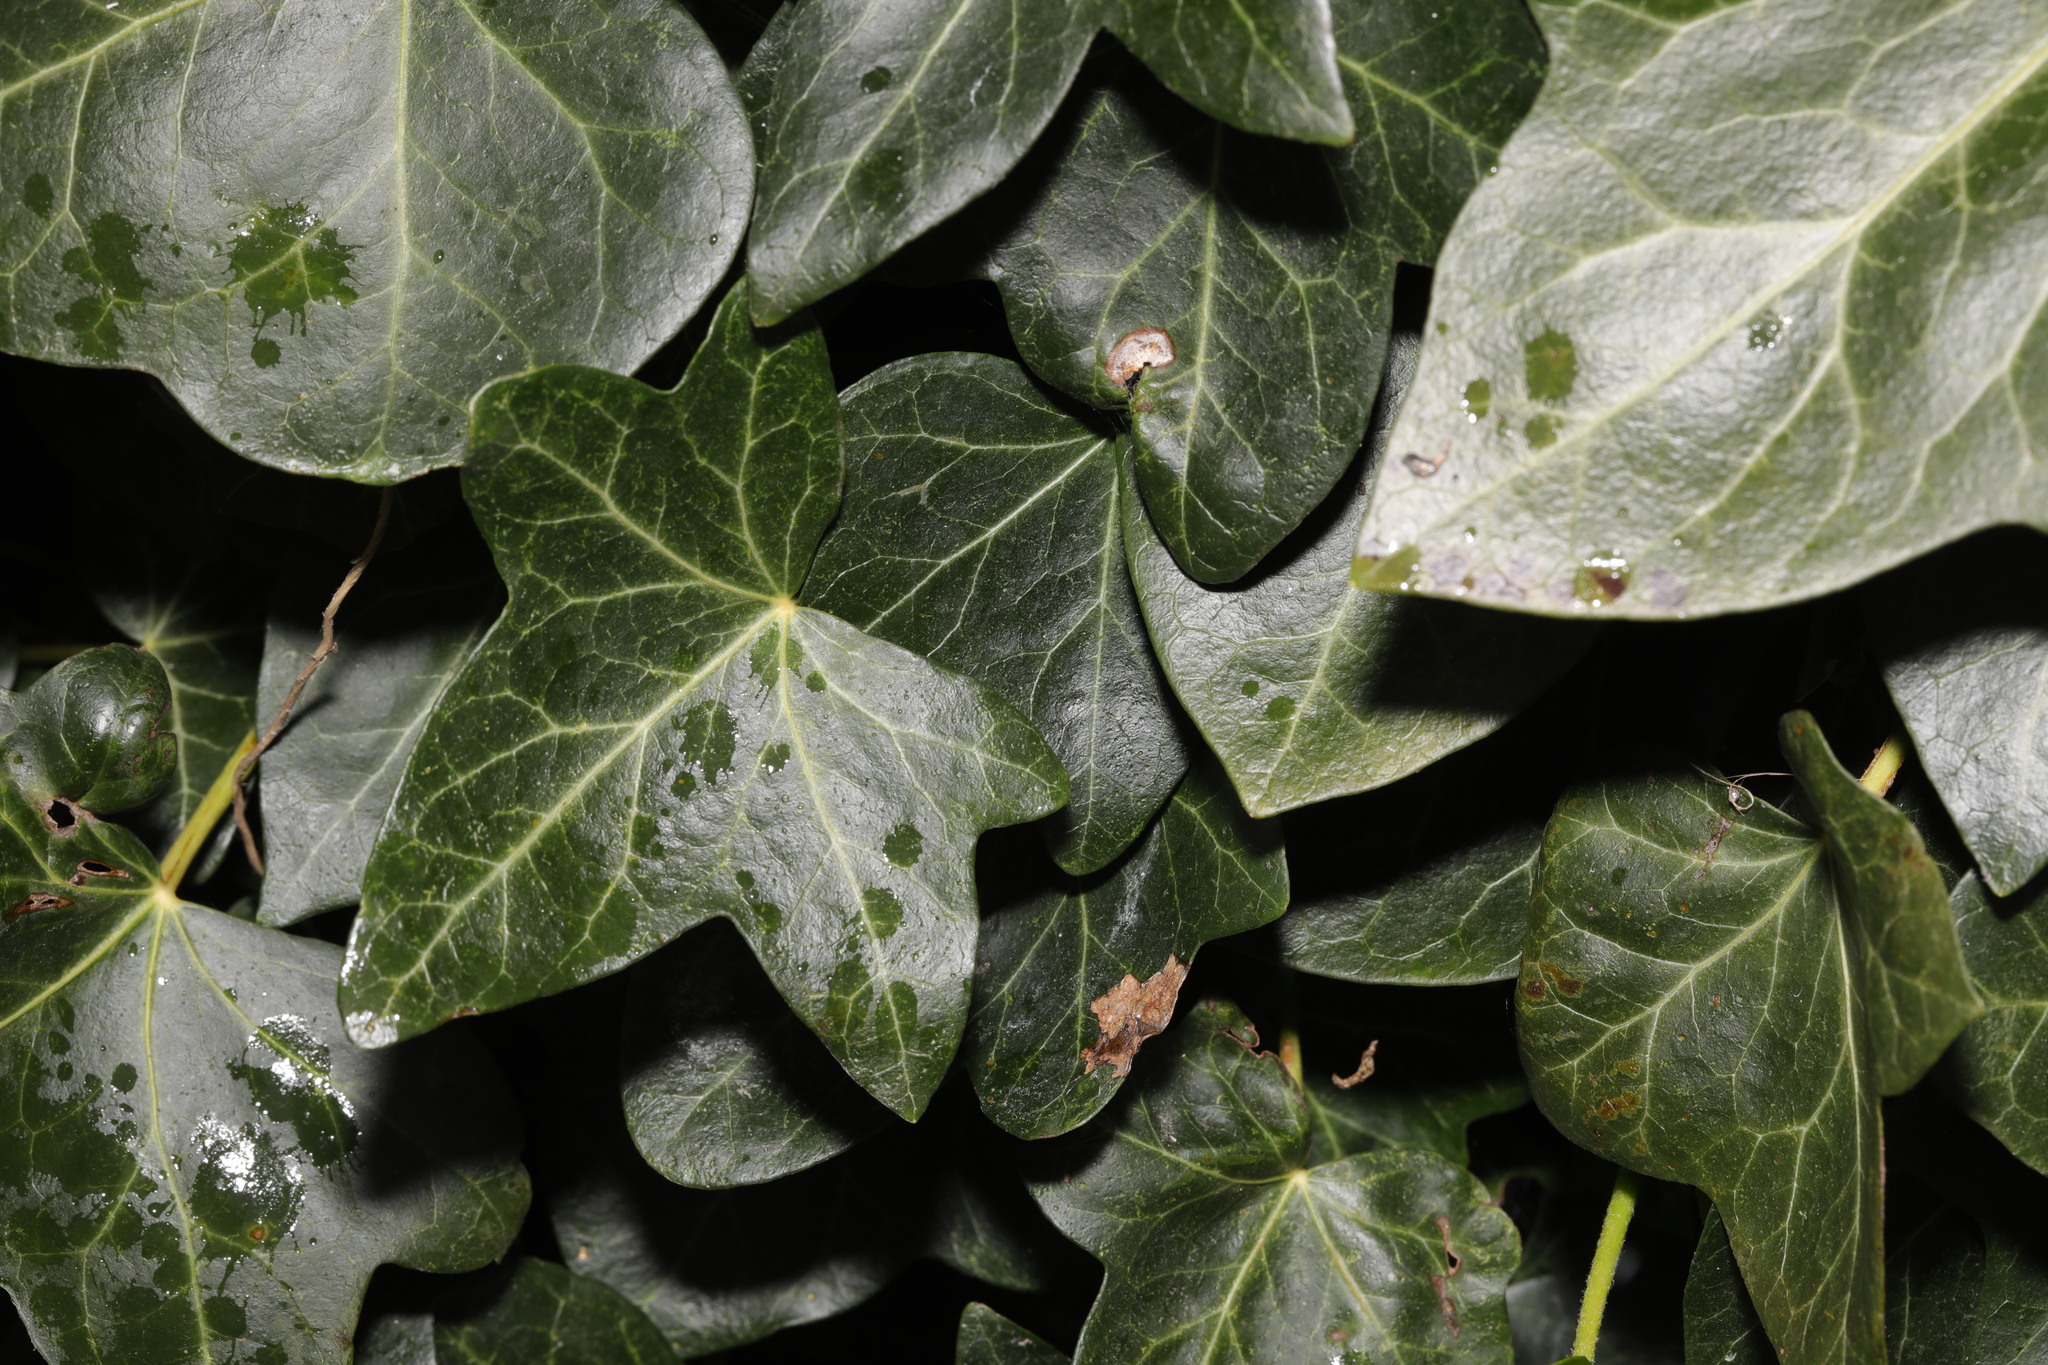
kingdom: Plantae
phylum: Tracheophyta
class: Magnoliopsida
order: Apiales
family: Araliaceae
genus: Hedera
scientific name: Hedera helix
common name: Ivy
